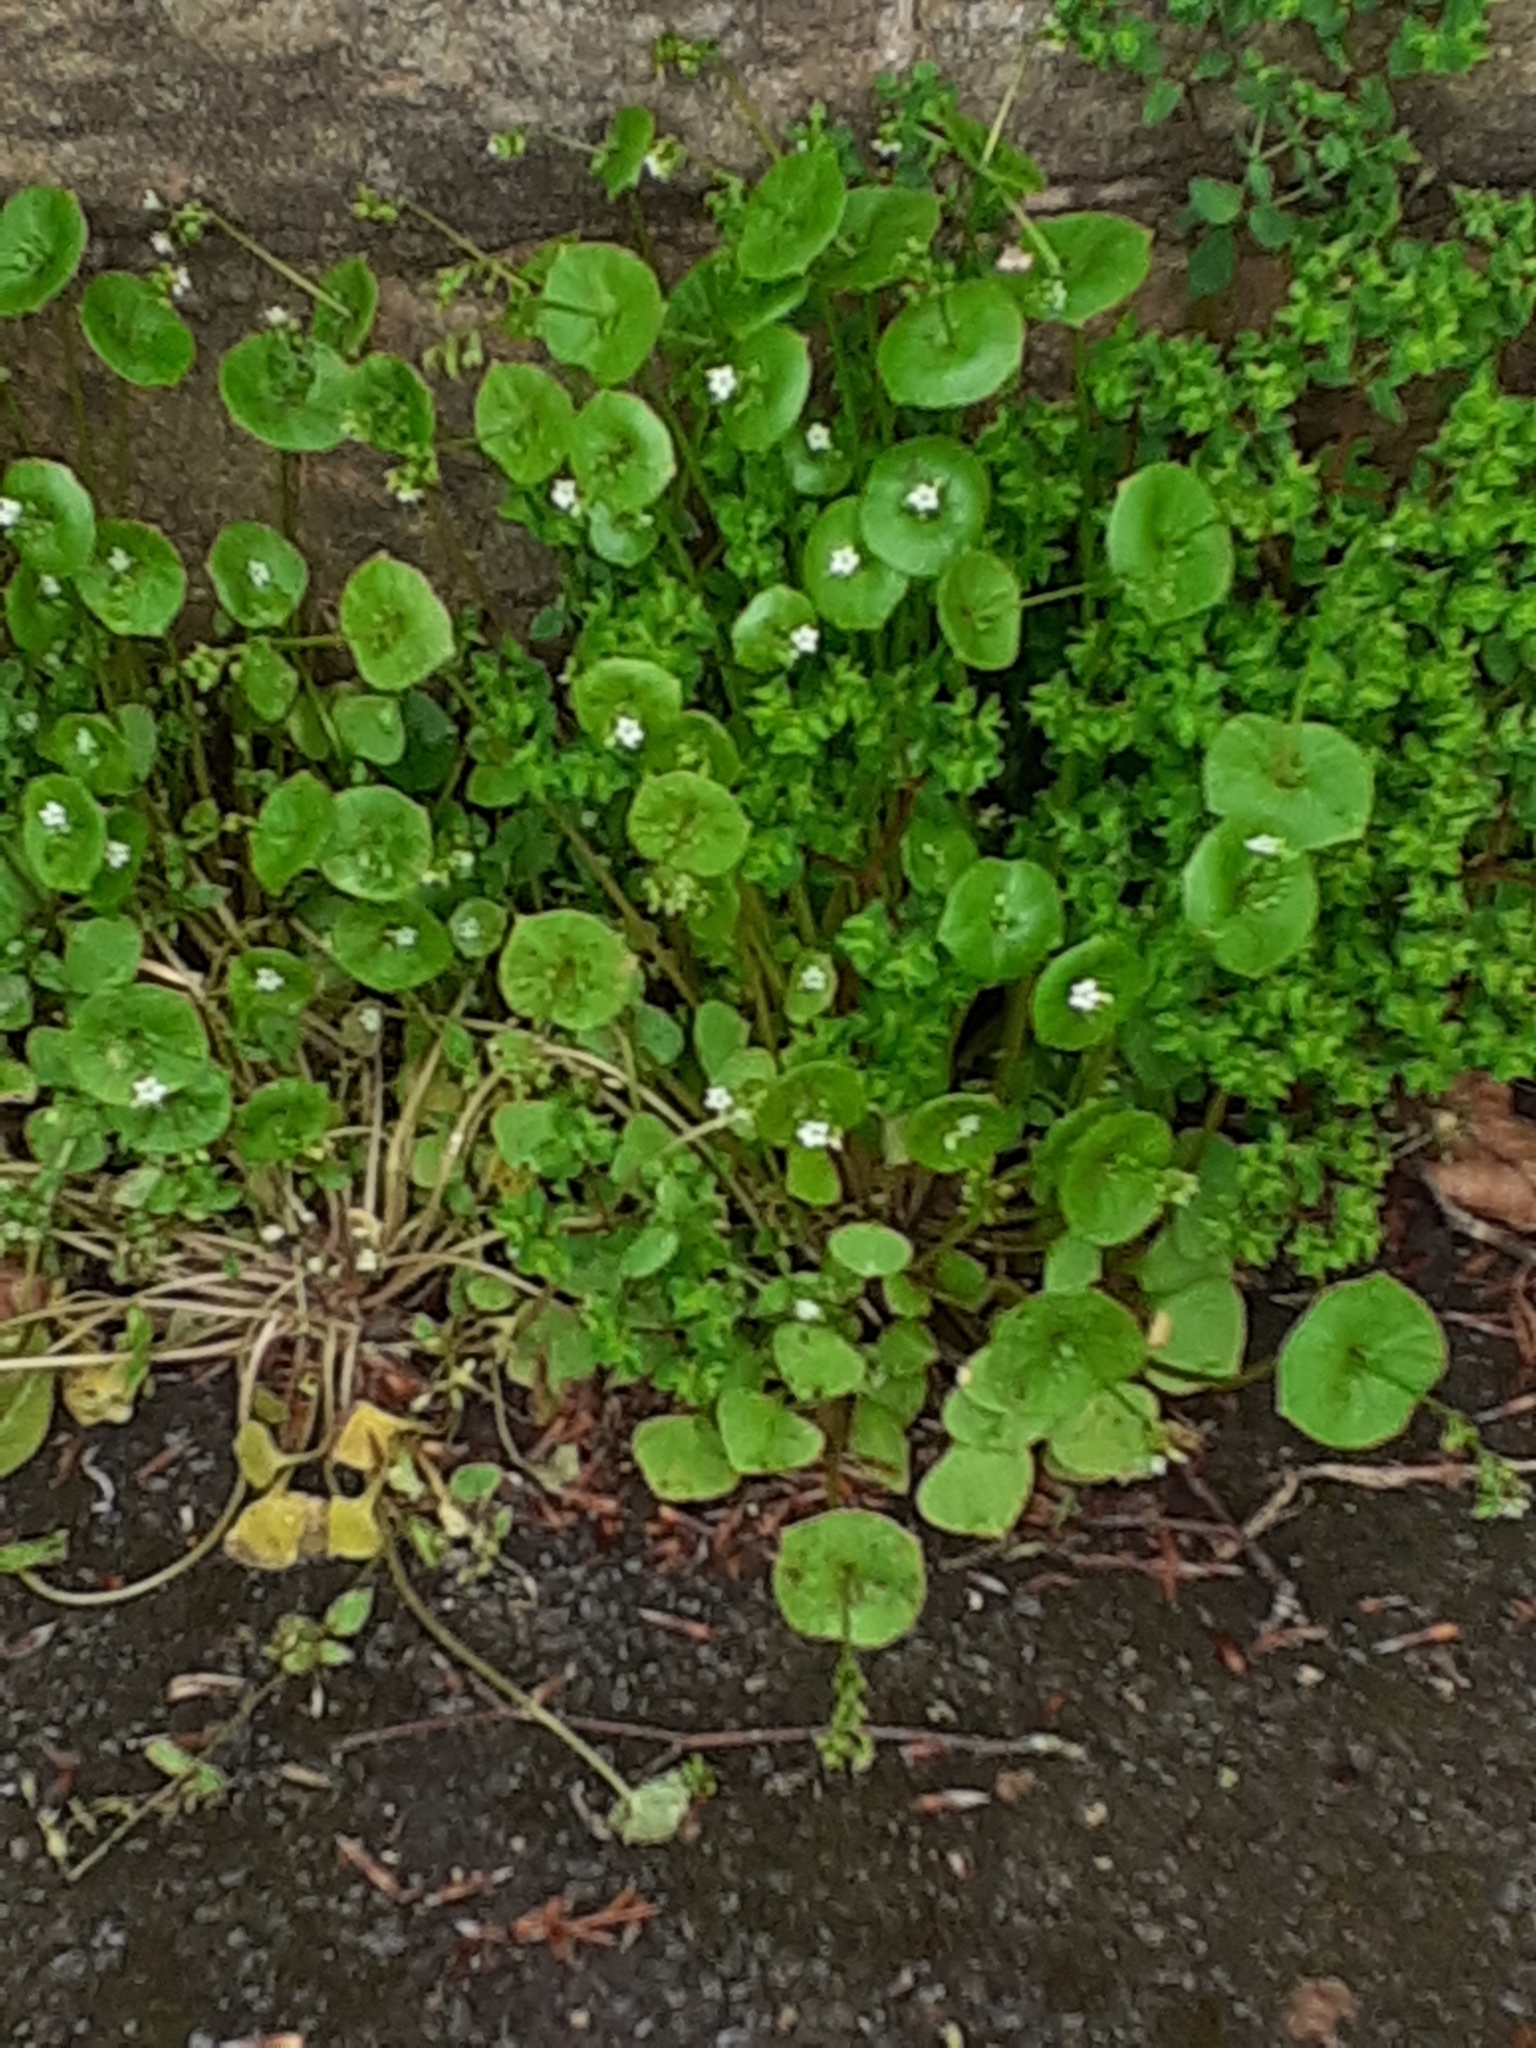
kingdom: Plantae
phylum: Tracheophyta
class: Magnoliopsida
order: Caryophyllales
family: Montiaceae
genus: Claytonia
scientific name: Claytonia perfoliata
